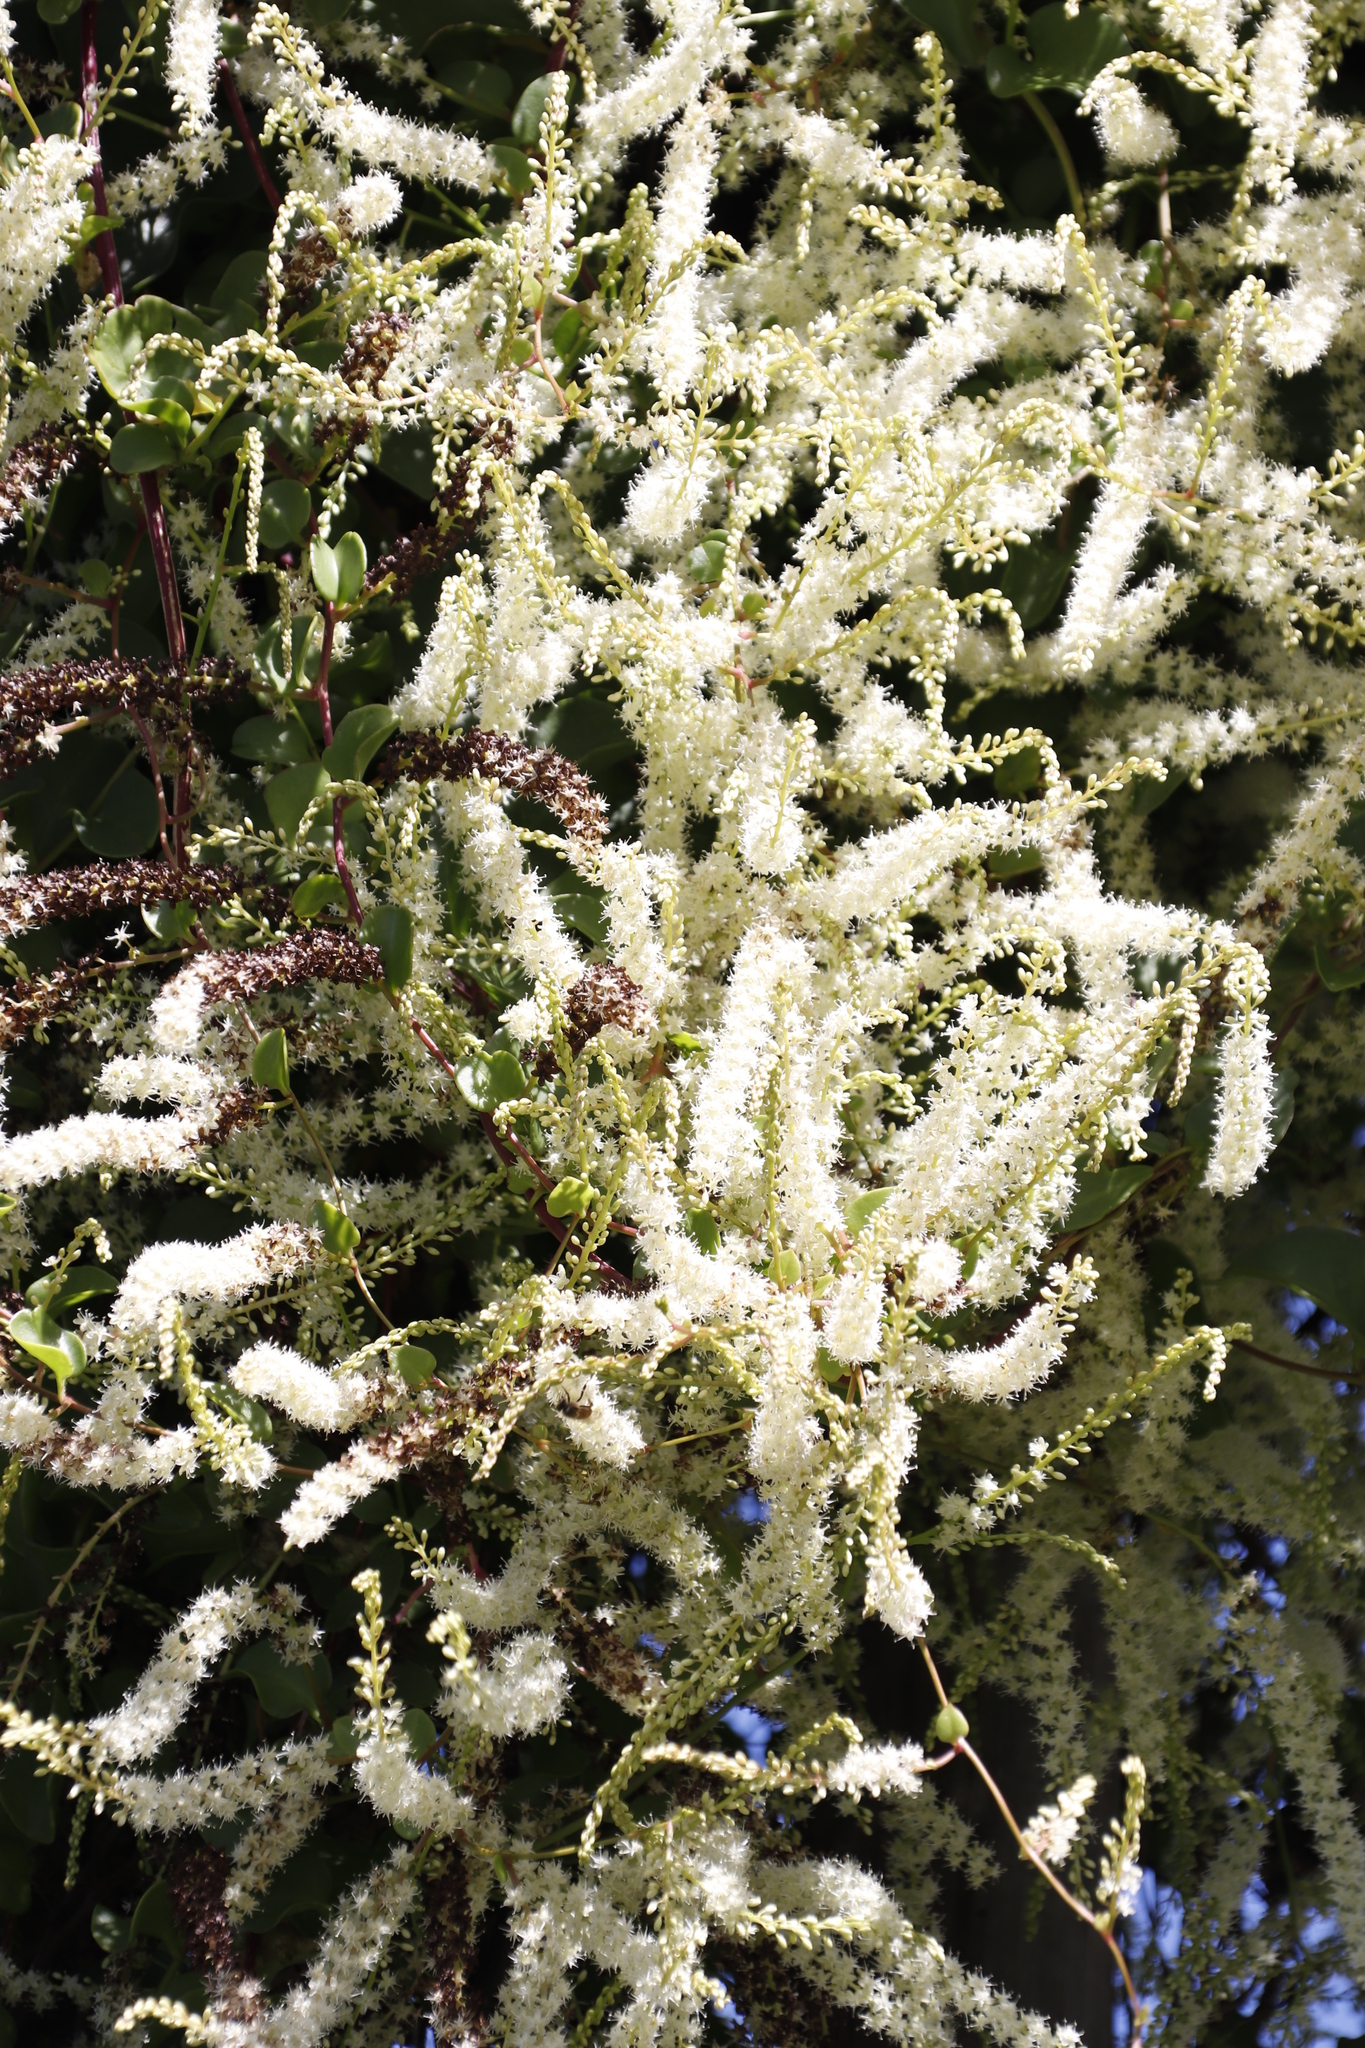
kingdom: Plantae
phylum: Tracheophyta
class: Magnoliopsida
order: Caryophyllales
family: Basellaceae
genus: Anredera
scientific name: Anredera cordifolia
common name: Heartleaf madeiravine
